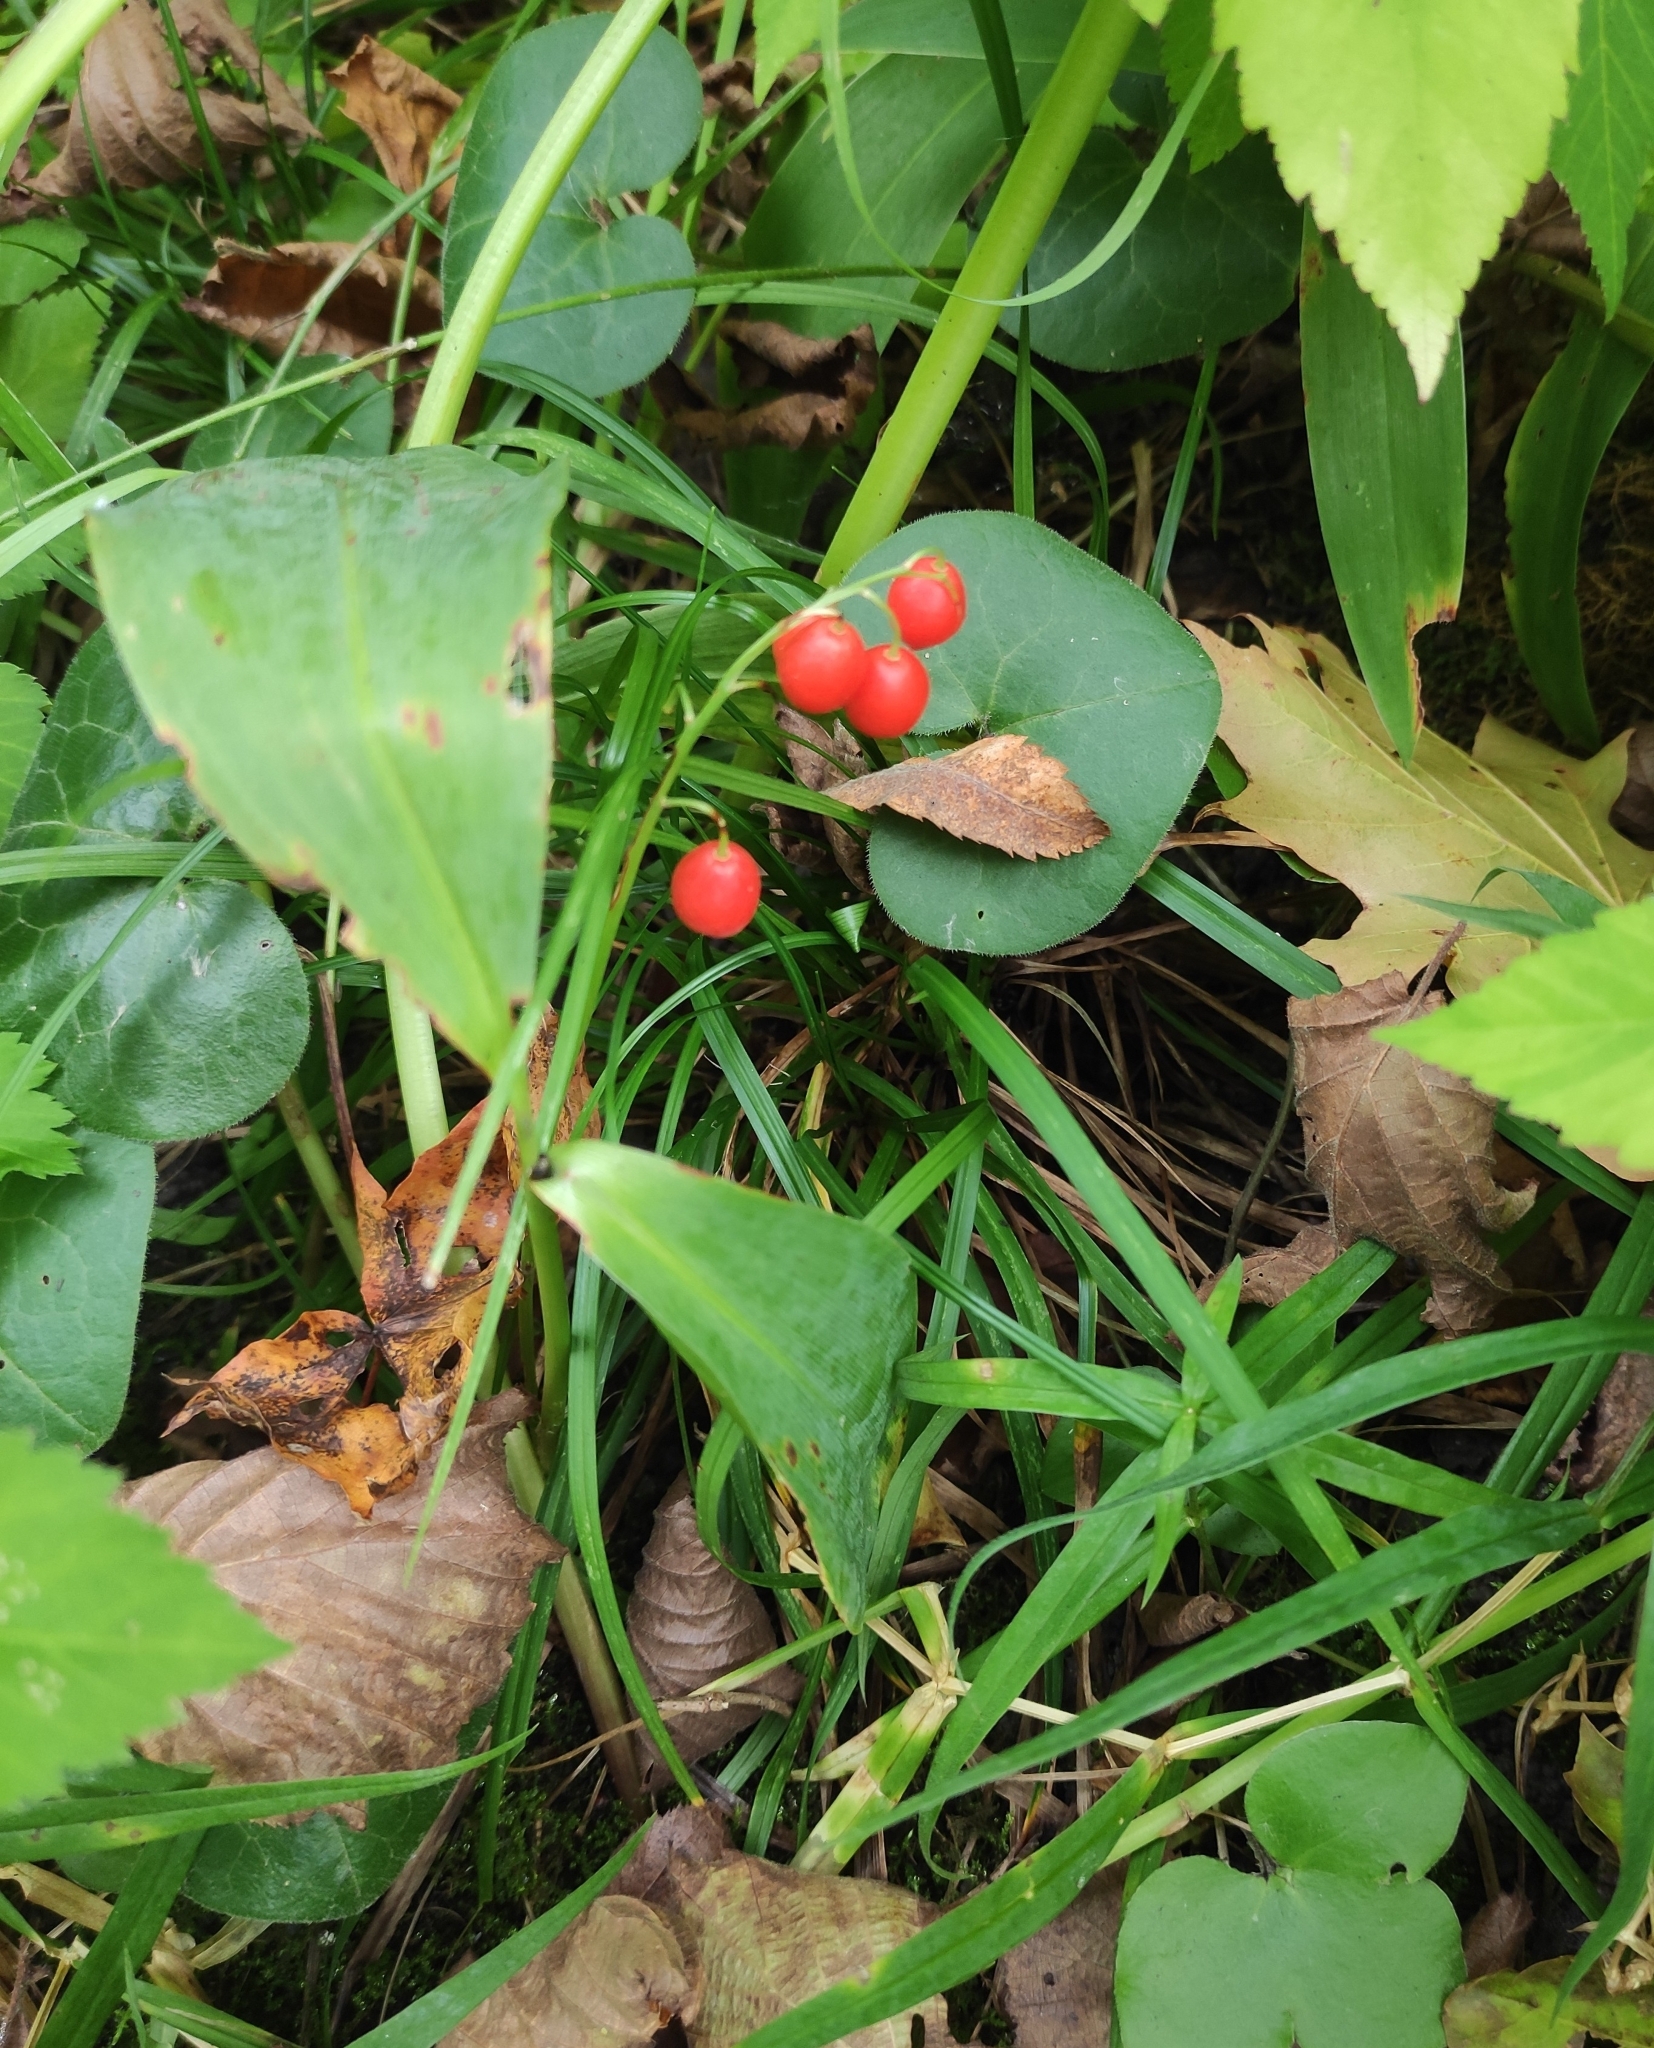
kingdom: Plantae
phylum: Tracheophyta
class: Liliopsida
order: Asparagales
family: Asparagaceae
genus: Convallaria
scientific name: Convallaria majalis
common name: Lily-of-the-valley
